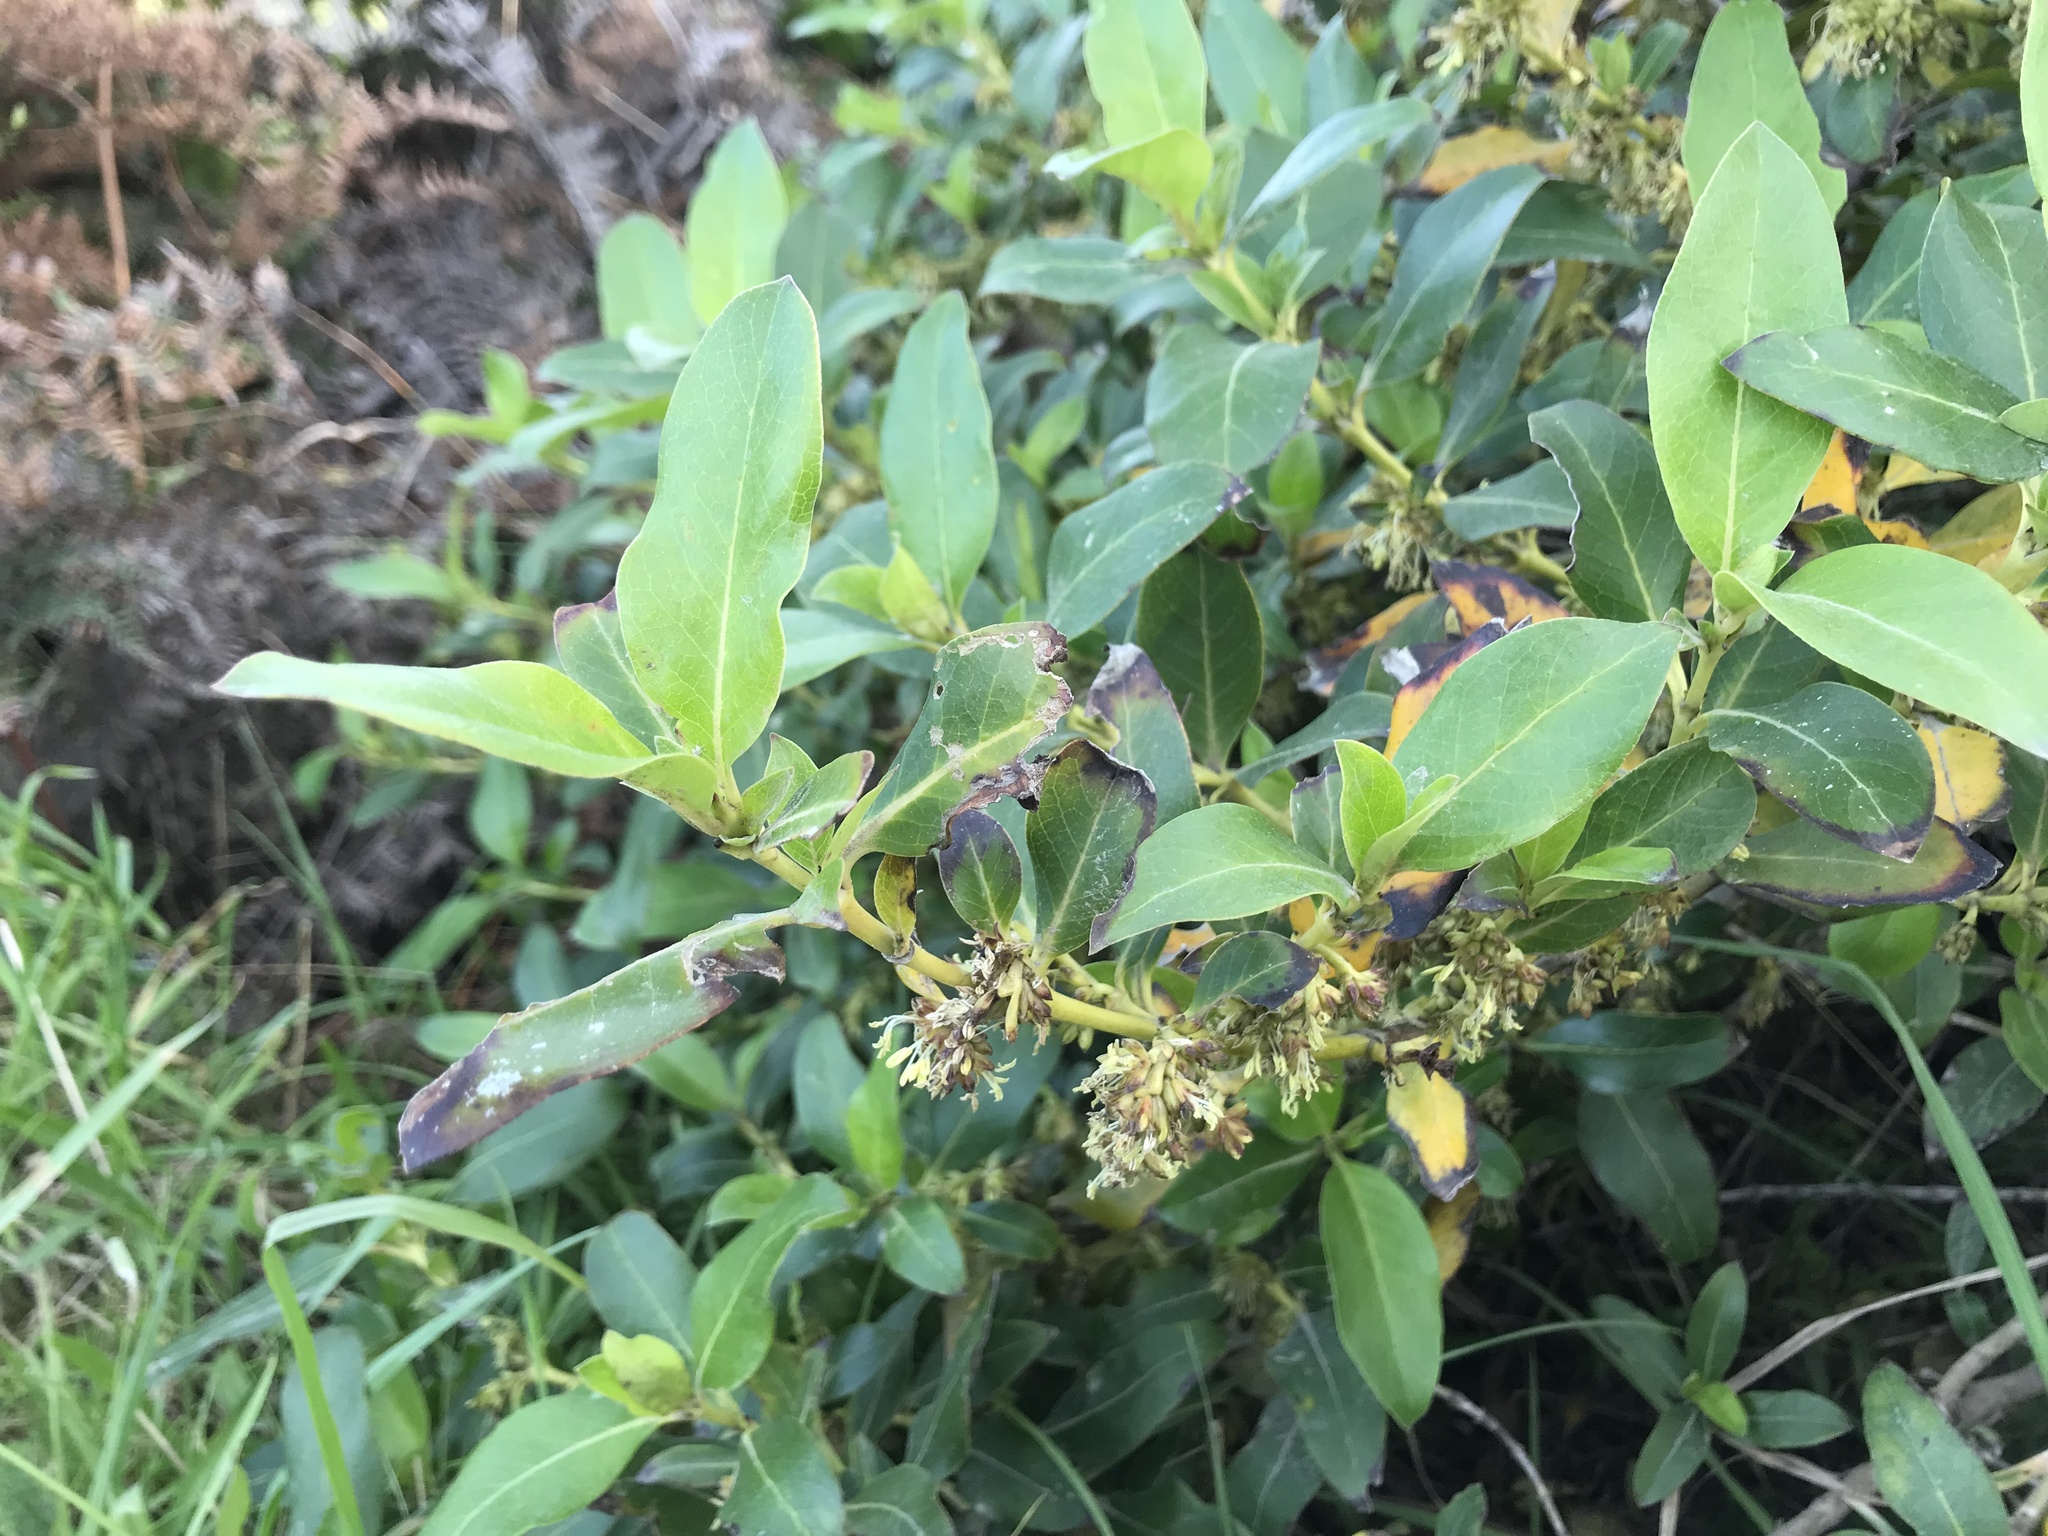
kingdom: Plantae
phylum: Tracheophyta
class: Magnoliopsida
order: Gentianales
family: Rubiaceae
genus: Coprosma
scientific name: Coprosma robusta
